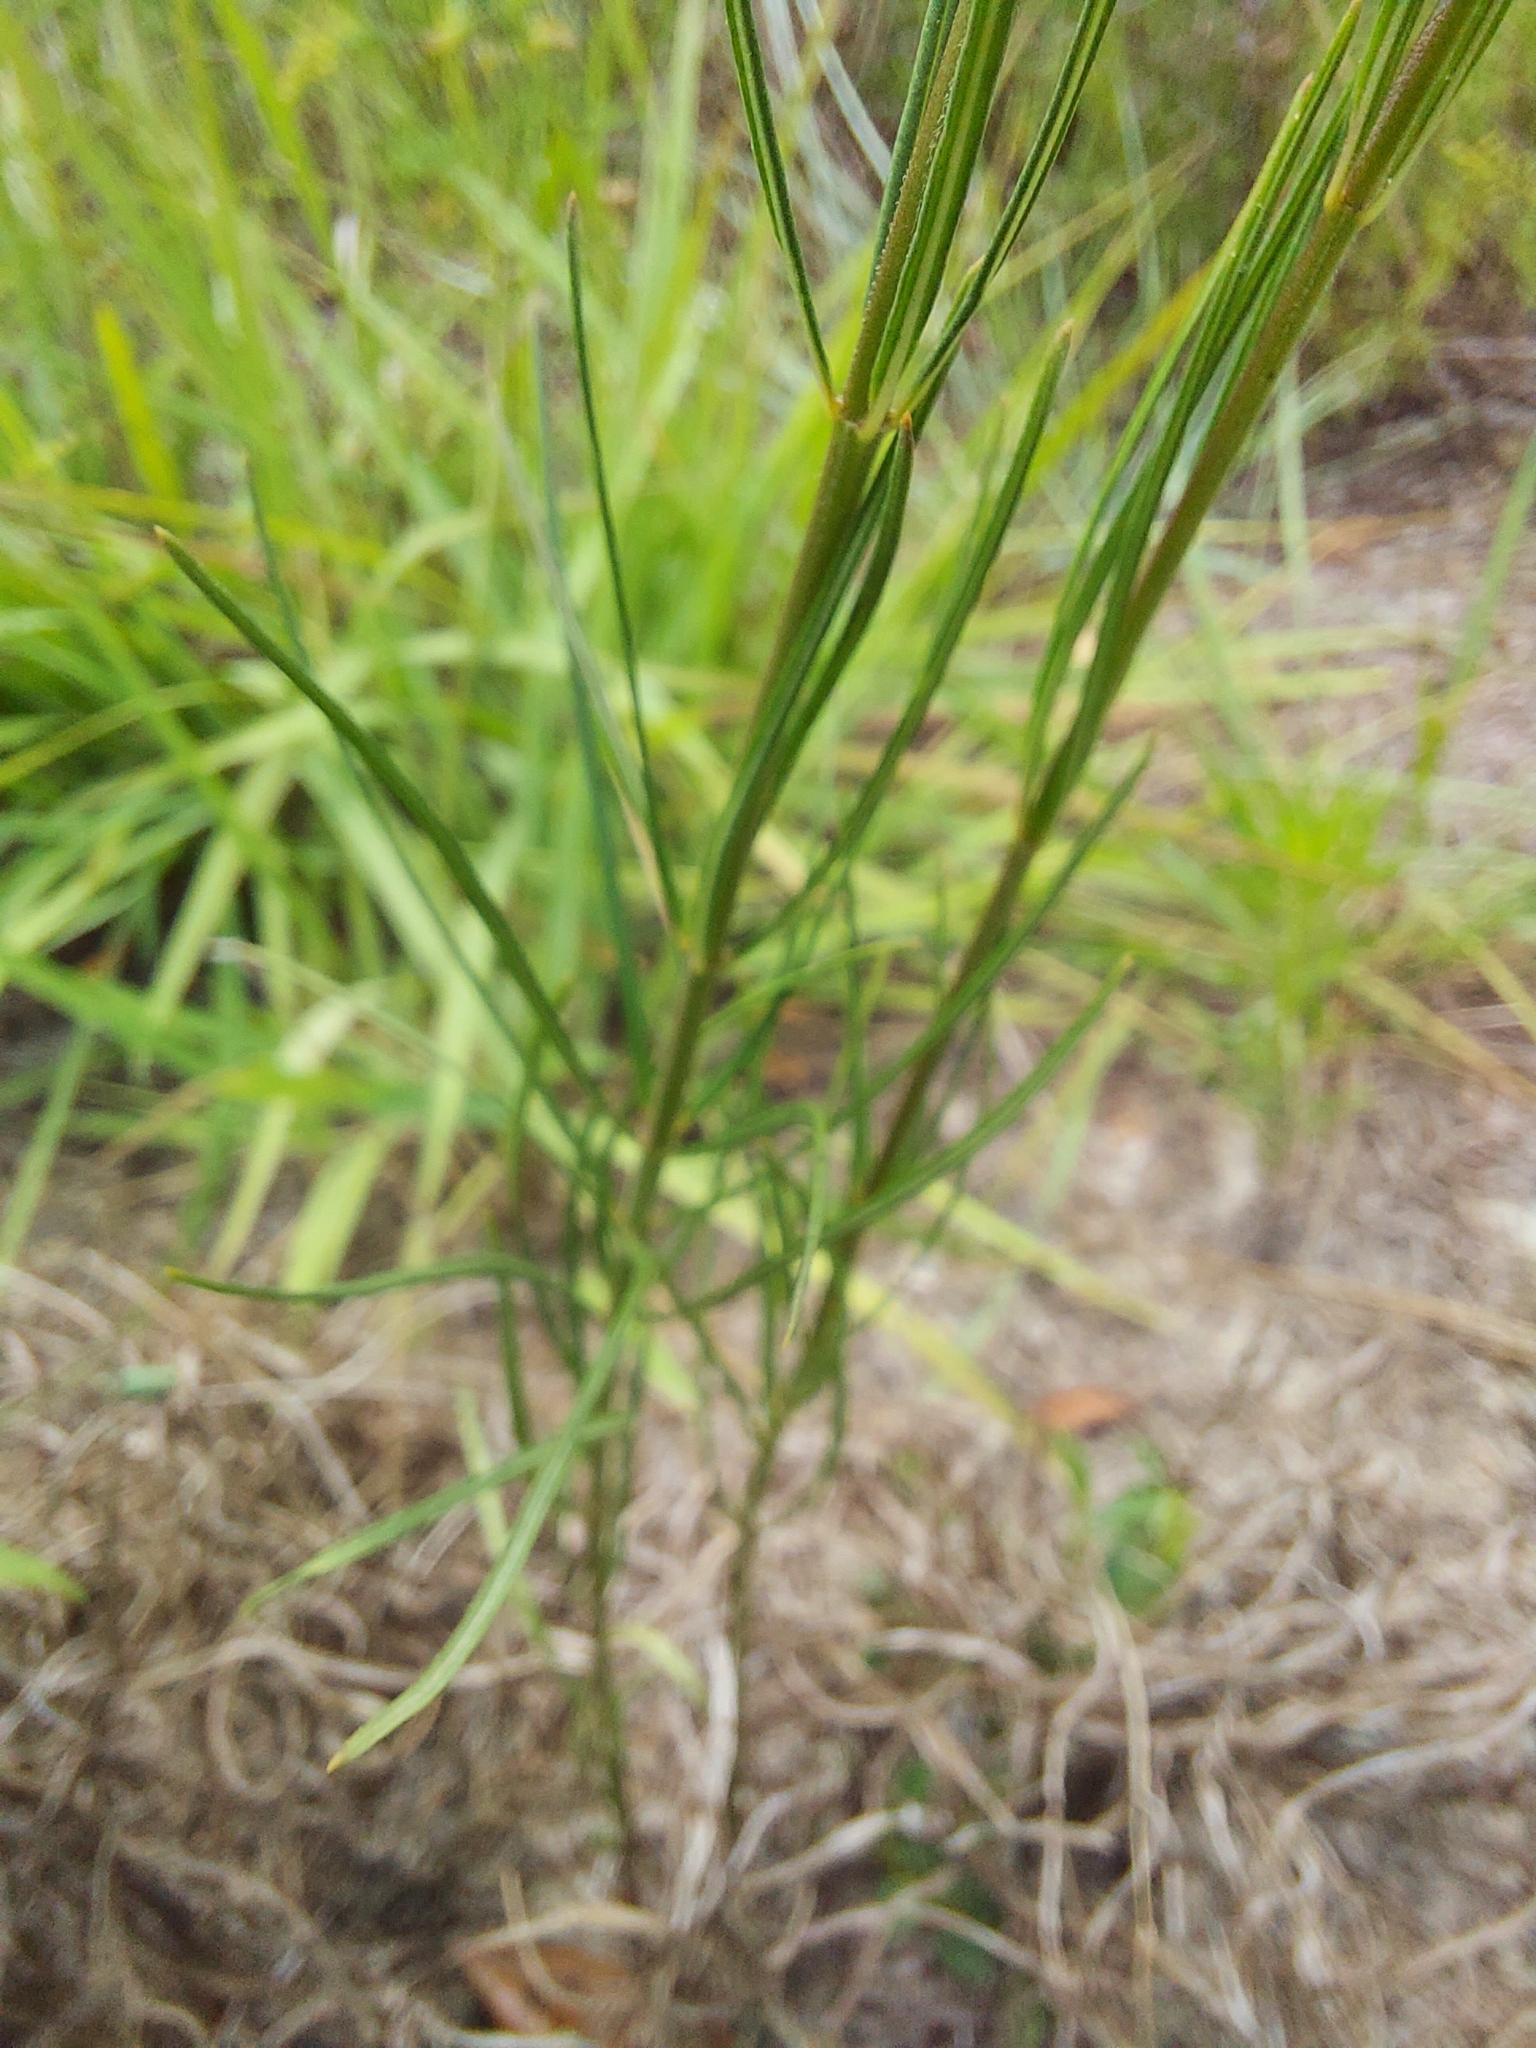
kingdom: Plantae
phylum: Tracheophyta
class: Magnoliopsida
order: Gentianales
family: Apocynaceae
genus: Asclepias
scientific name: Asclepias verticillata
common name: Eastern whorled milkweed
